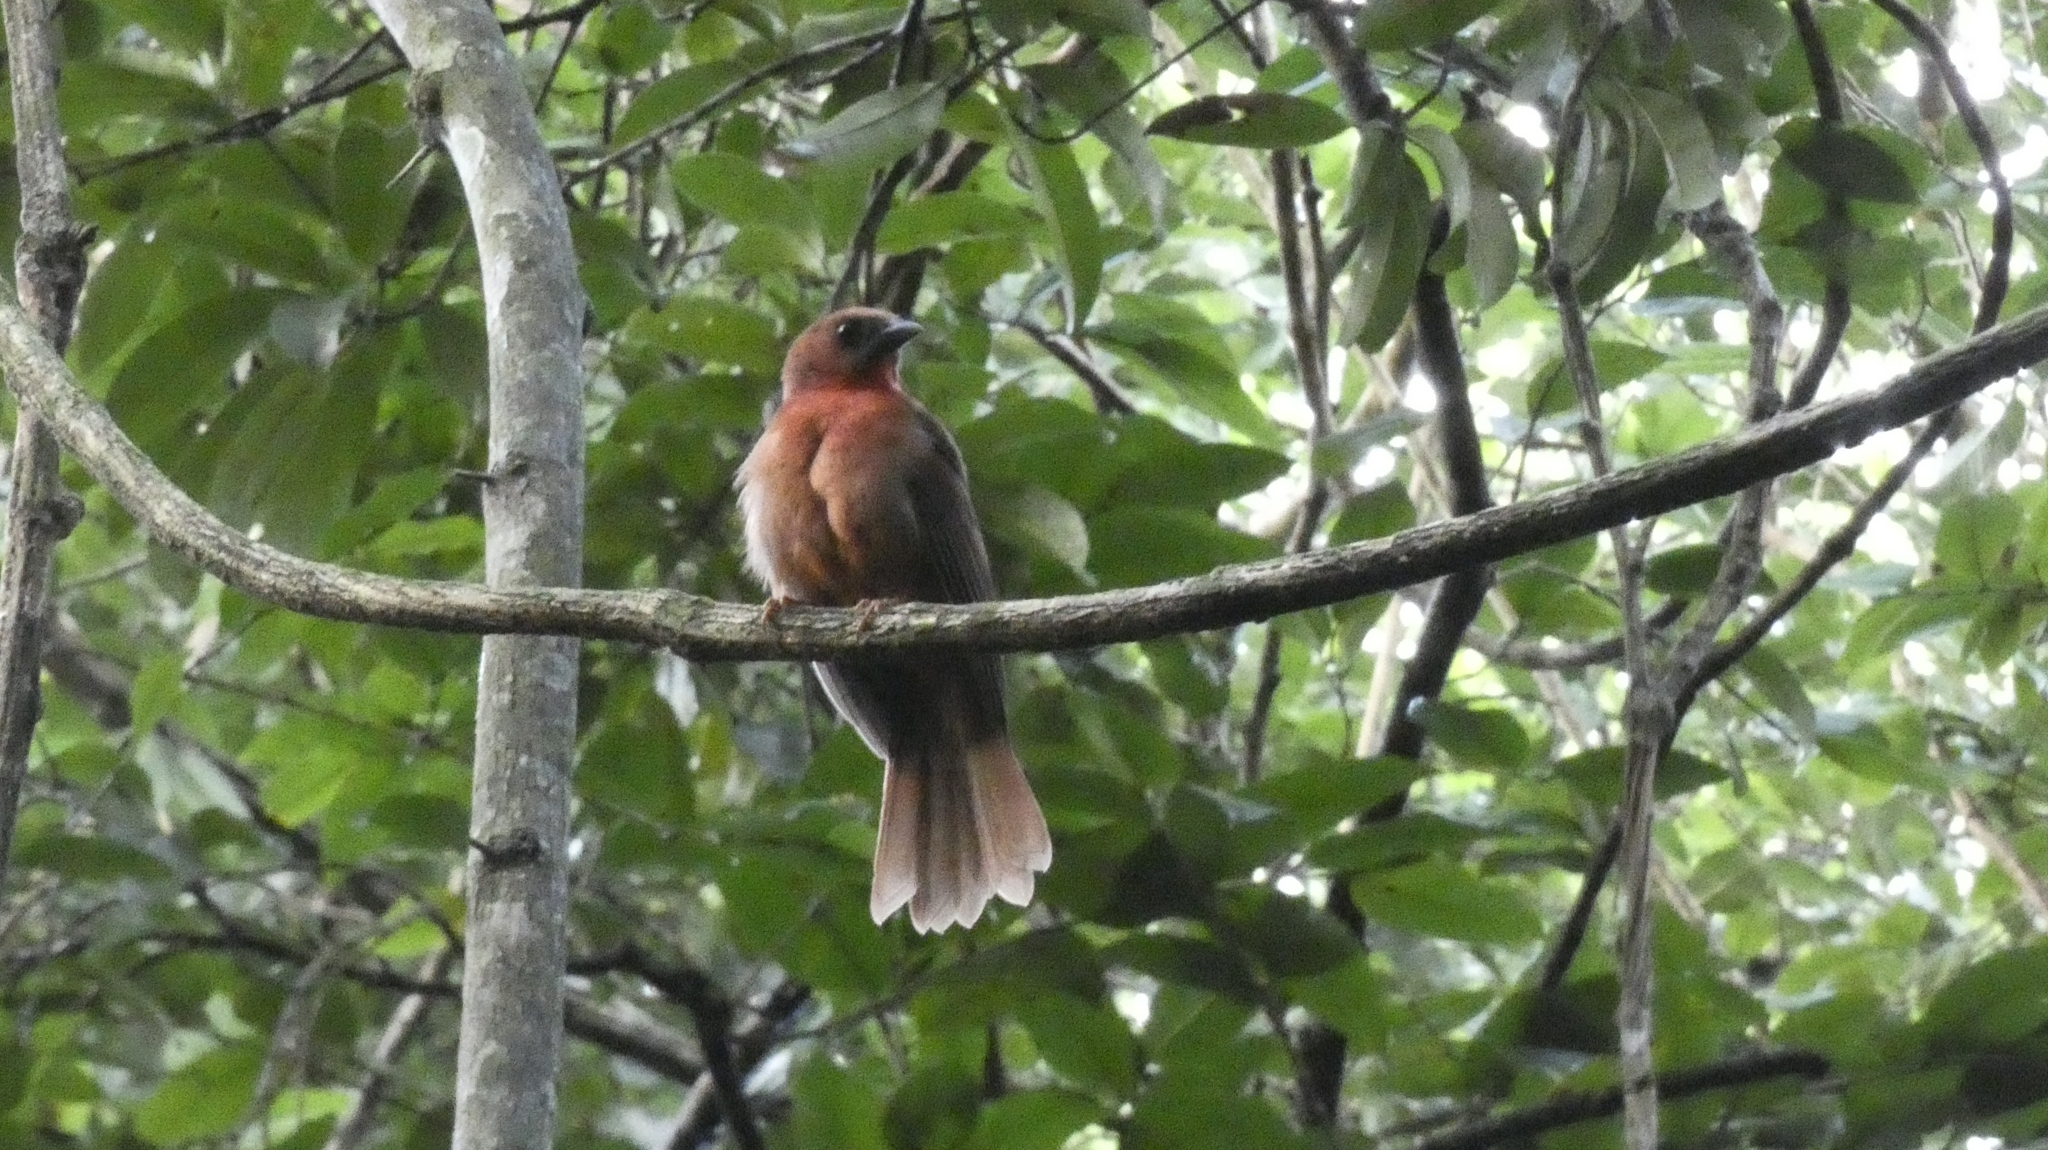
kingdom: Animalia
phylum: Chordata
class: Aves
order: Passeriformes
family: Cardinalidae
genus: Habia
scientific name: Habia fuscicauda
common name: Red-throated ant-tanager
